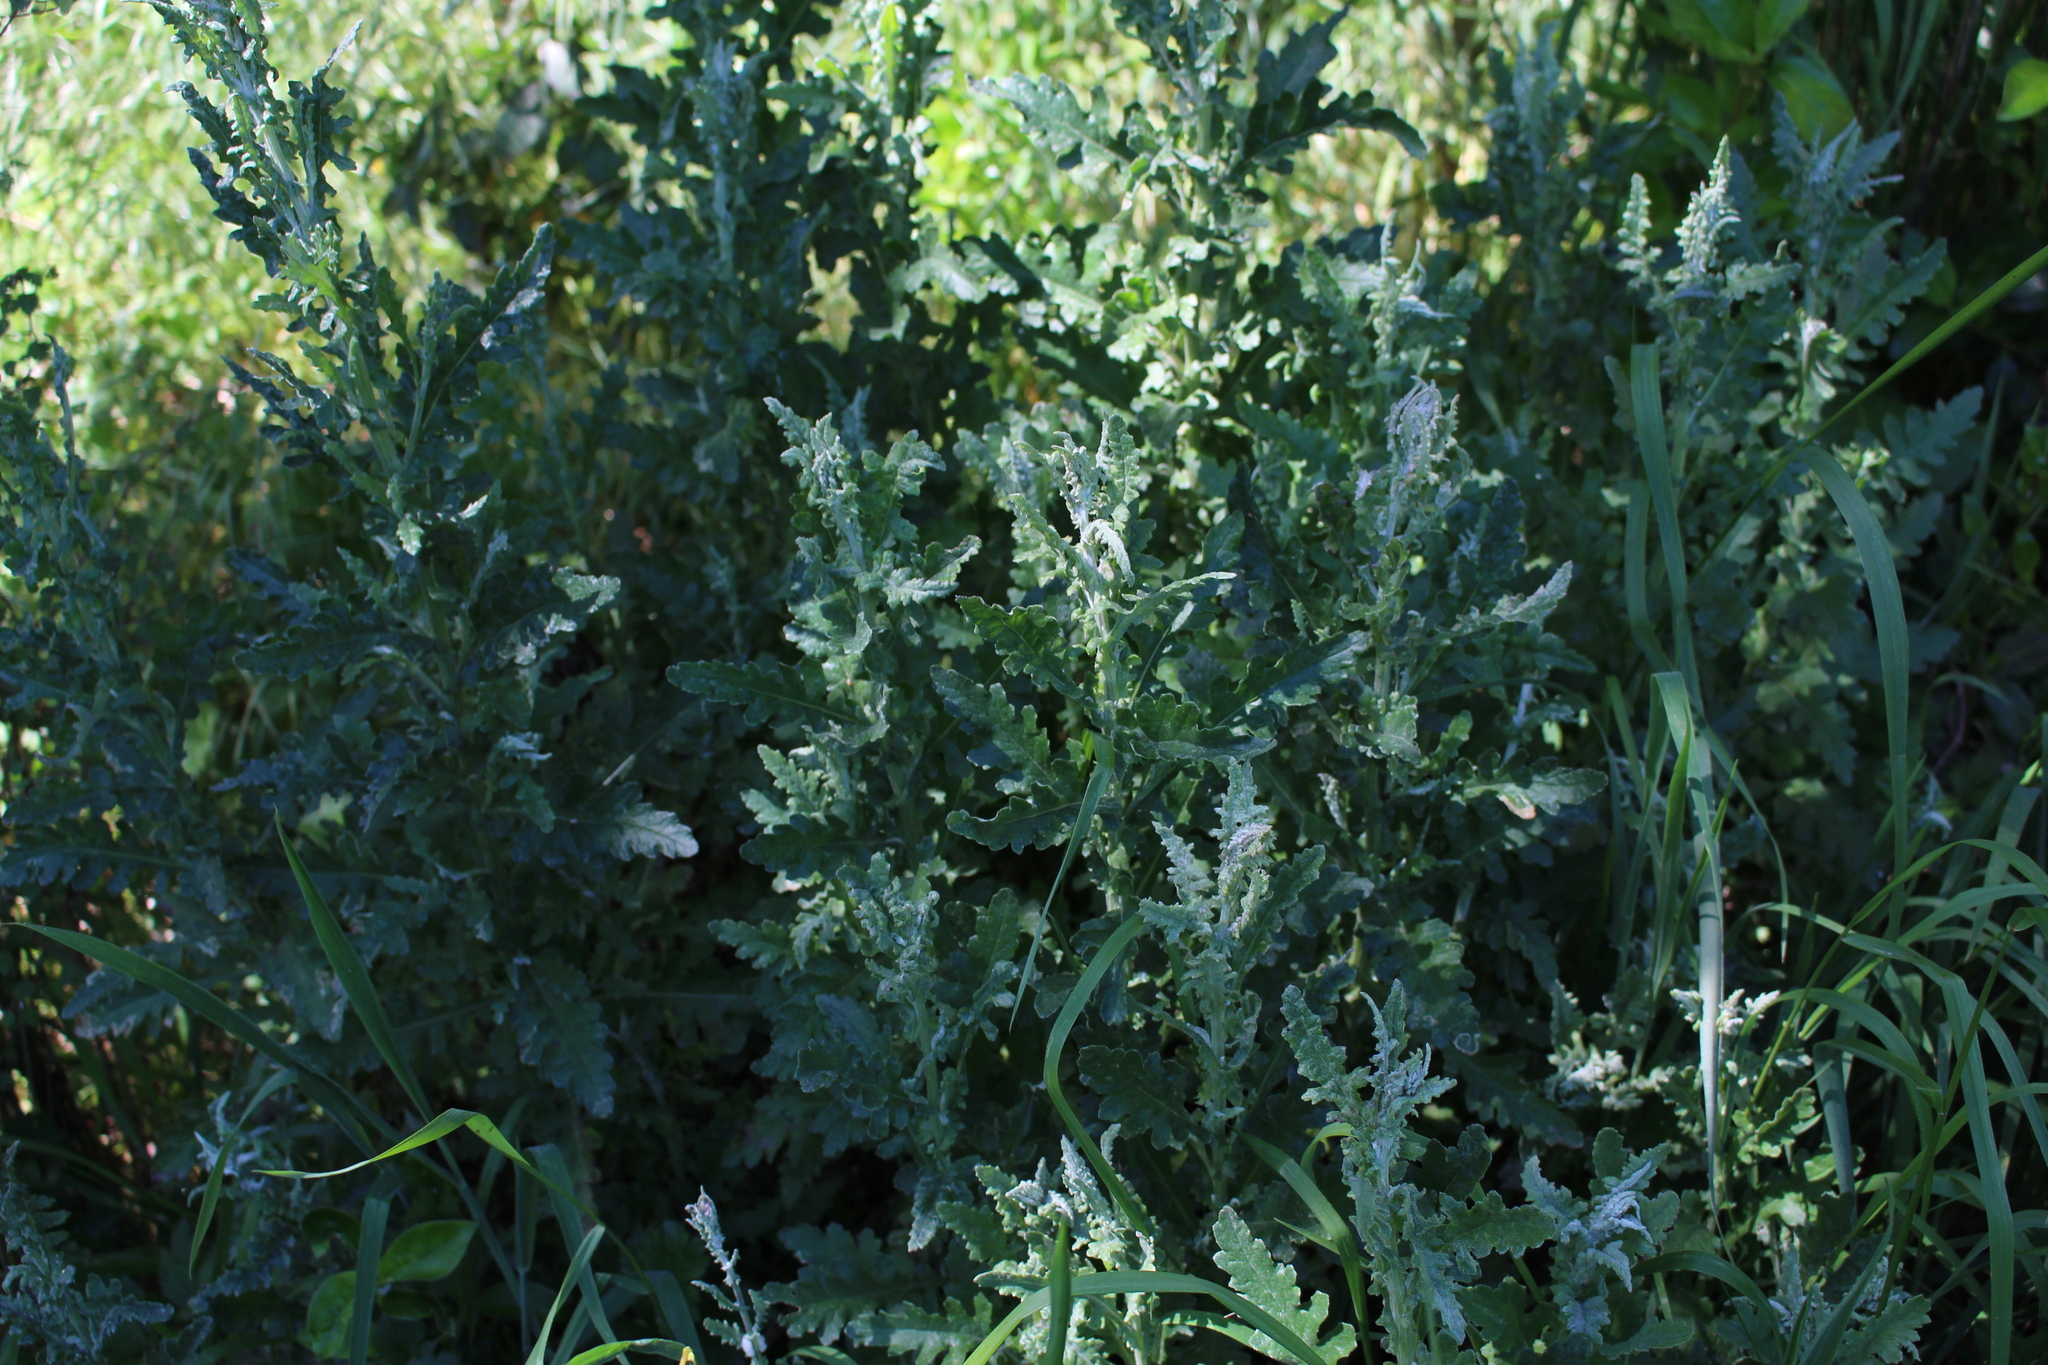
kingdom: Plantae
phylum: Tracheophyta
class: Magnoliopsida
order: Asterales
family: Asteraceae
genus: Senecio
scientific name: Senecio glomeratus
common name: Cutleaf burnweed
